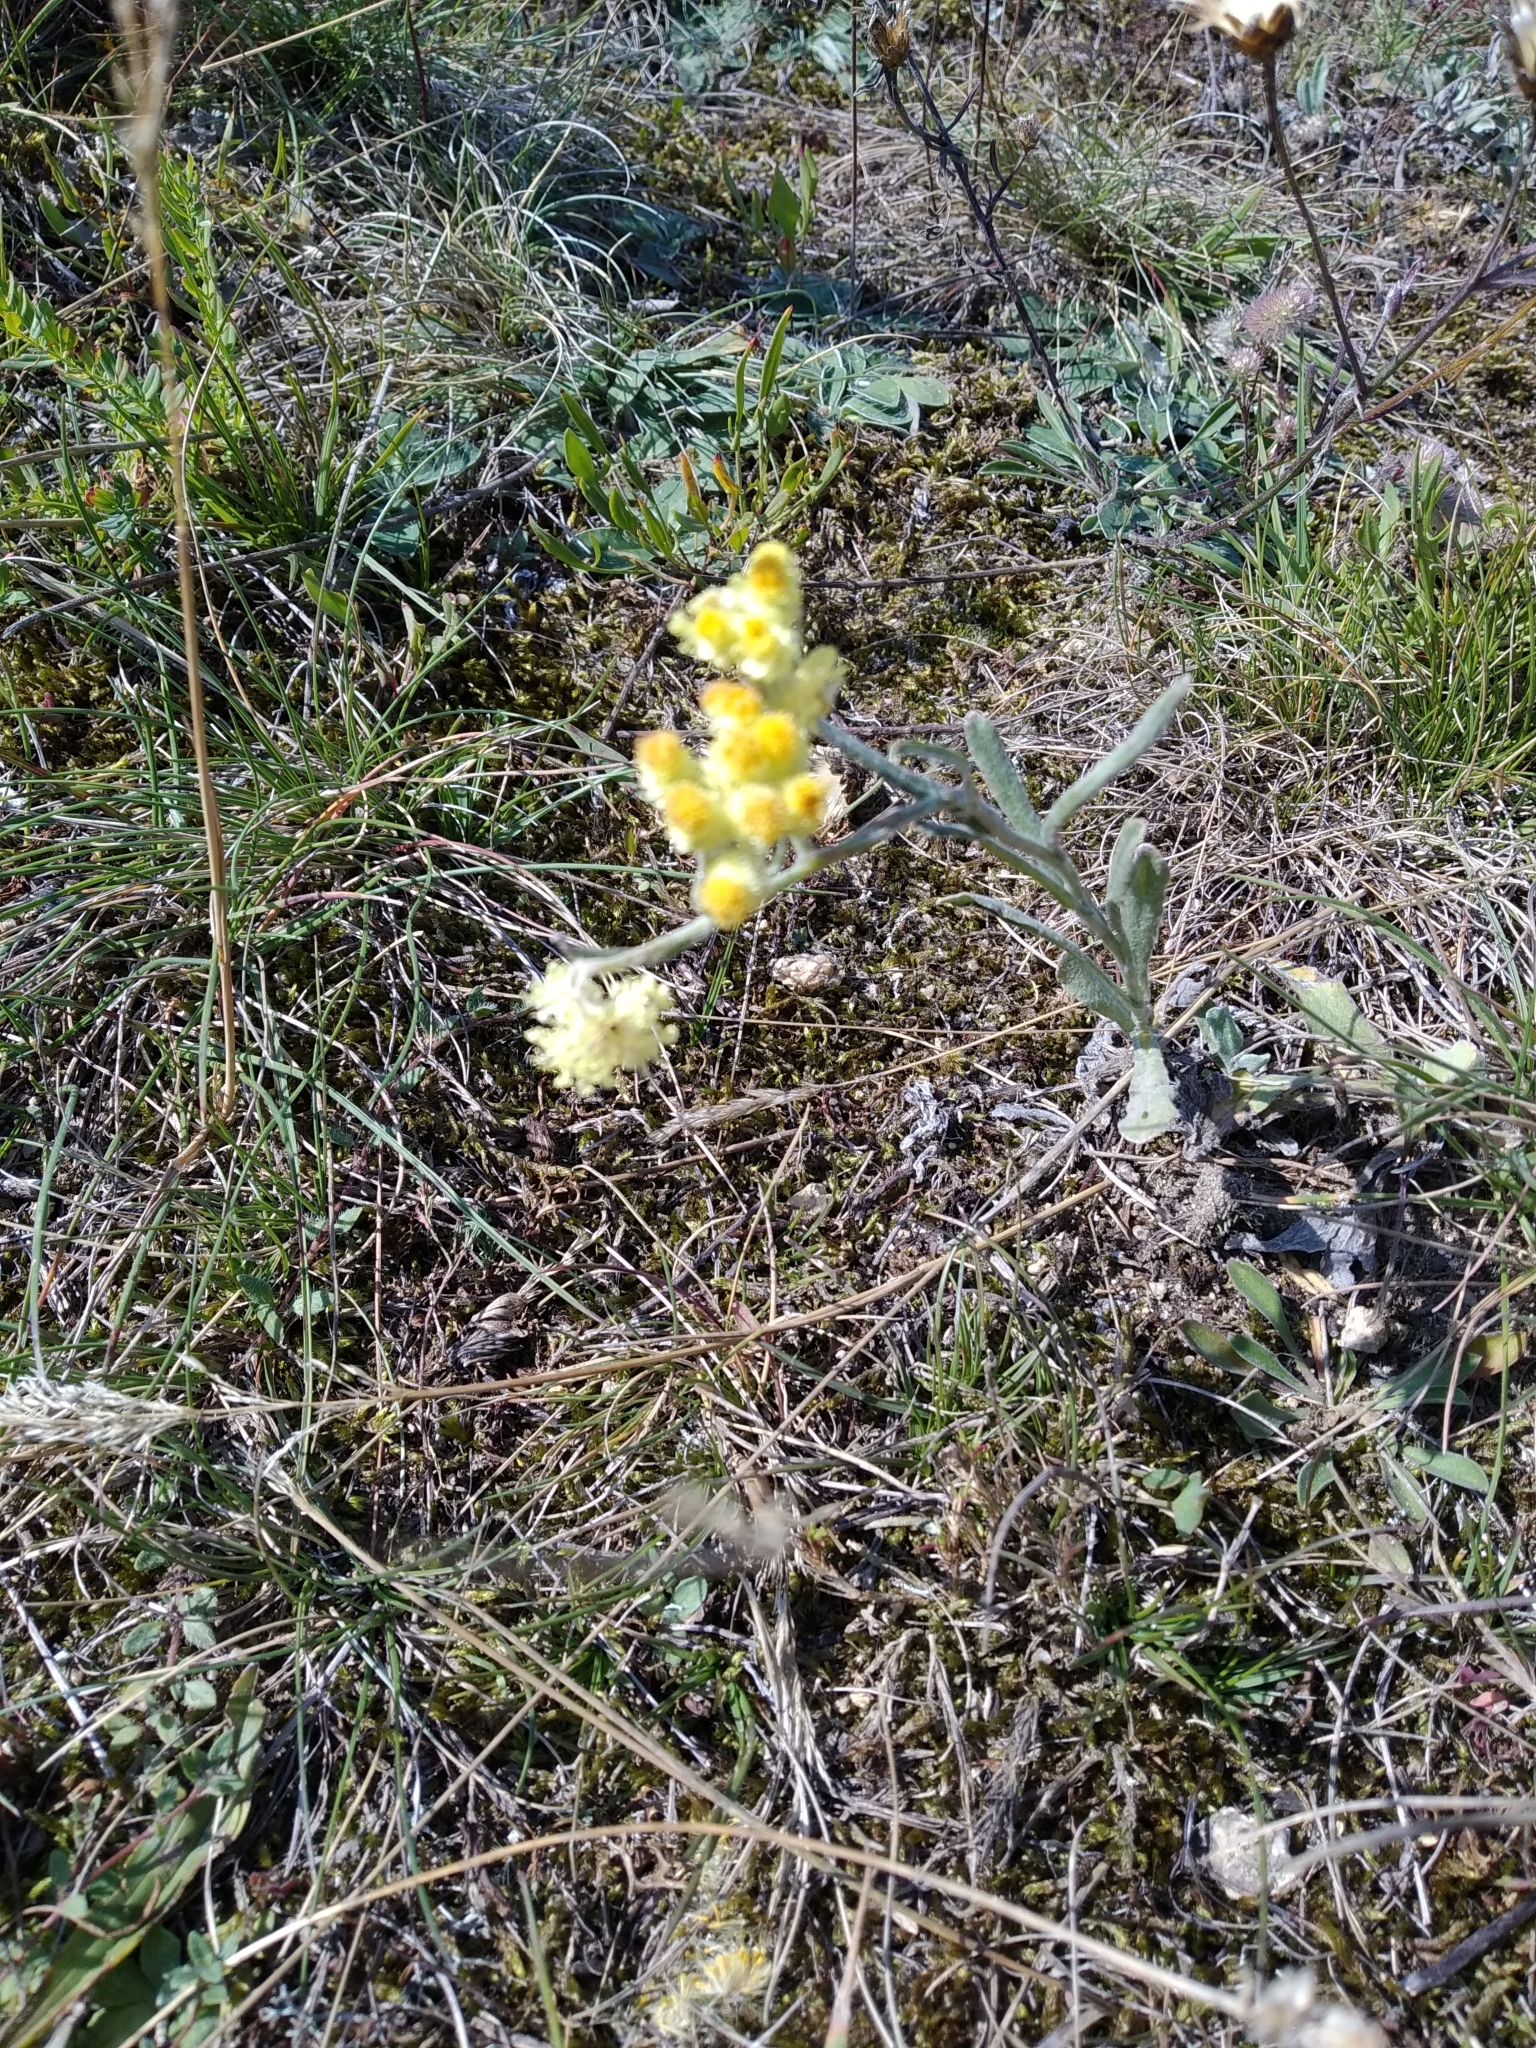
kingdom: Plantae
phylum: Tracheophyta
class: Magnoliopsida
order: Asterales
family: Asteraceae
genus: Helichrysum
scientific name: Helichrysum arenarium
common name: Strawflower
